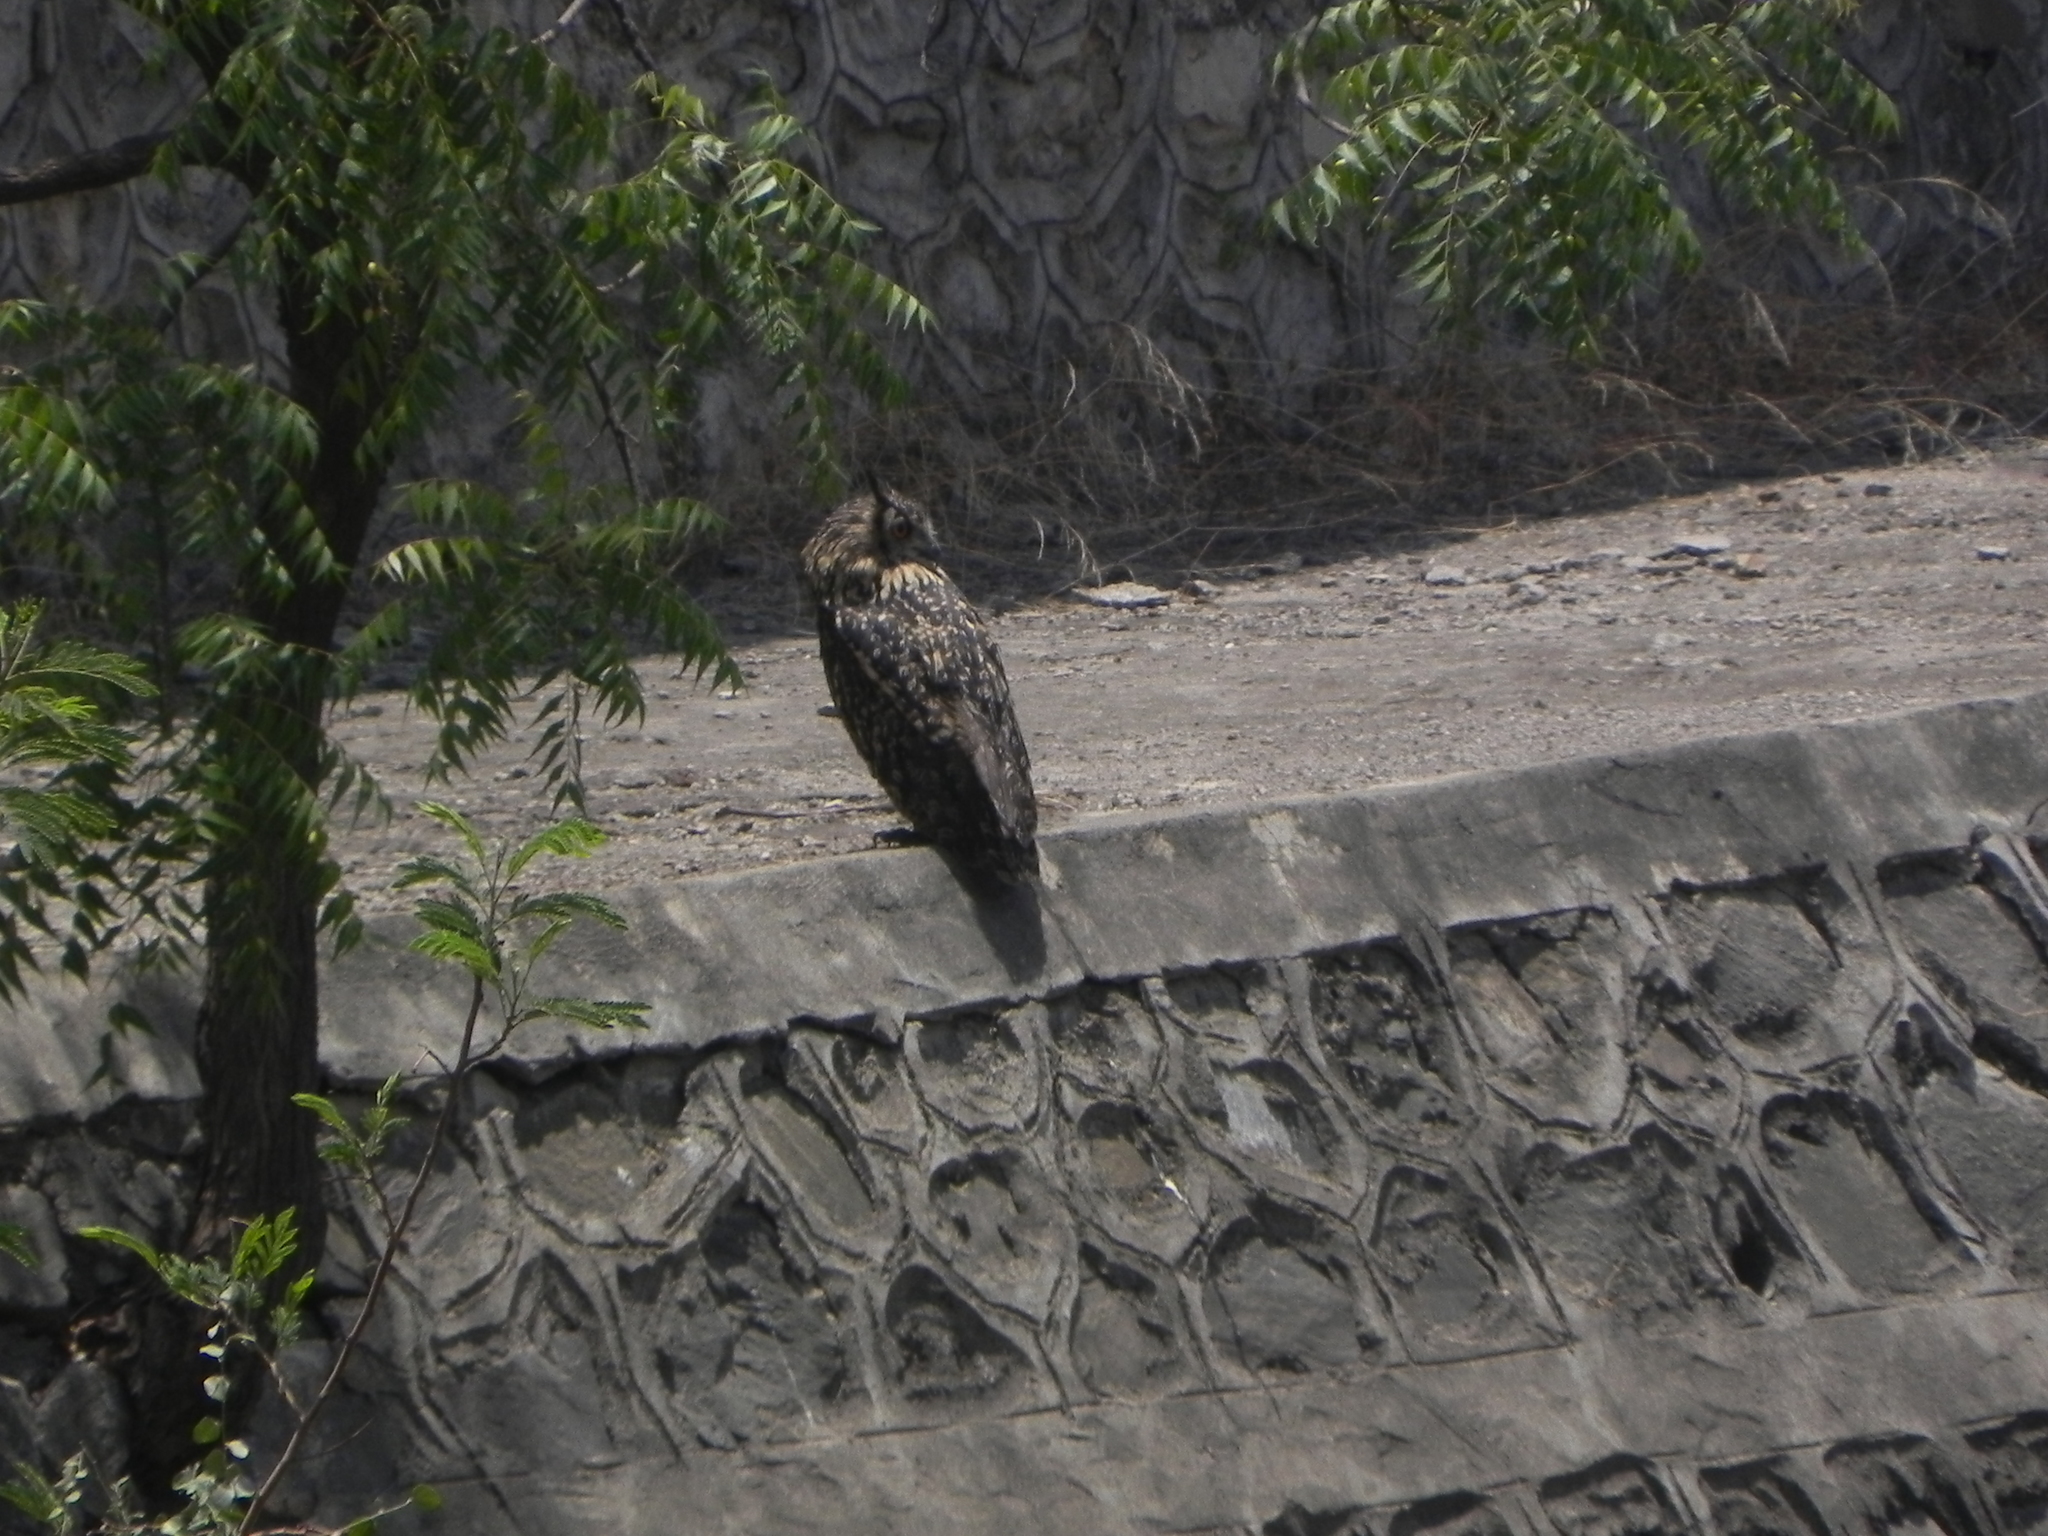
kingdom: Animalia
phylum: Chordata
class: Aves
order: Strigiformes
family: Strigidae
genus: Bubo
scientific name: Bubo bengalensis
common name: Indian eagle-owl
